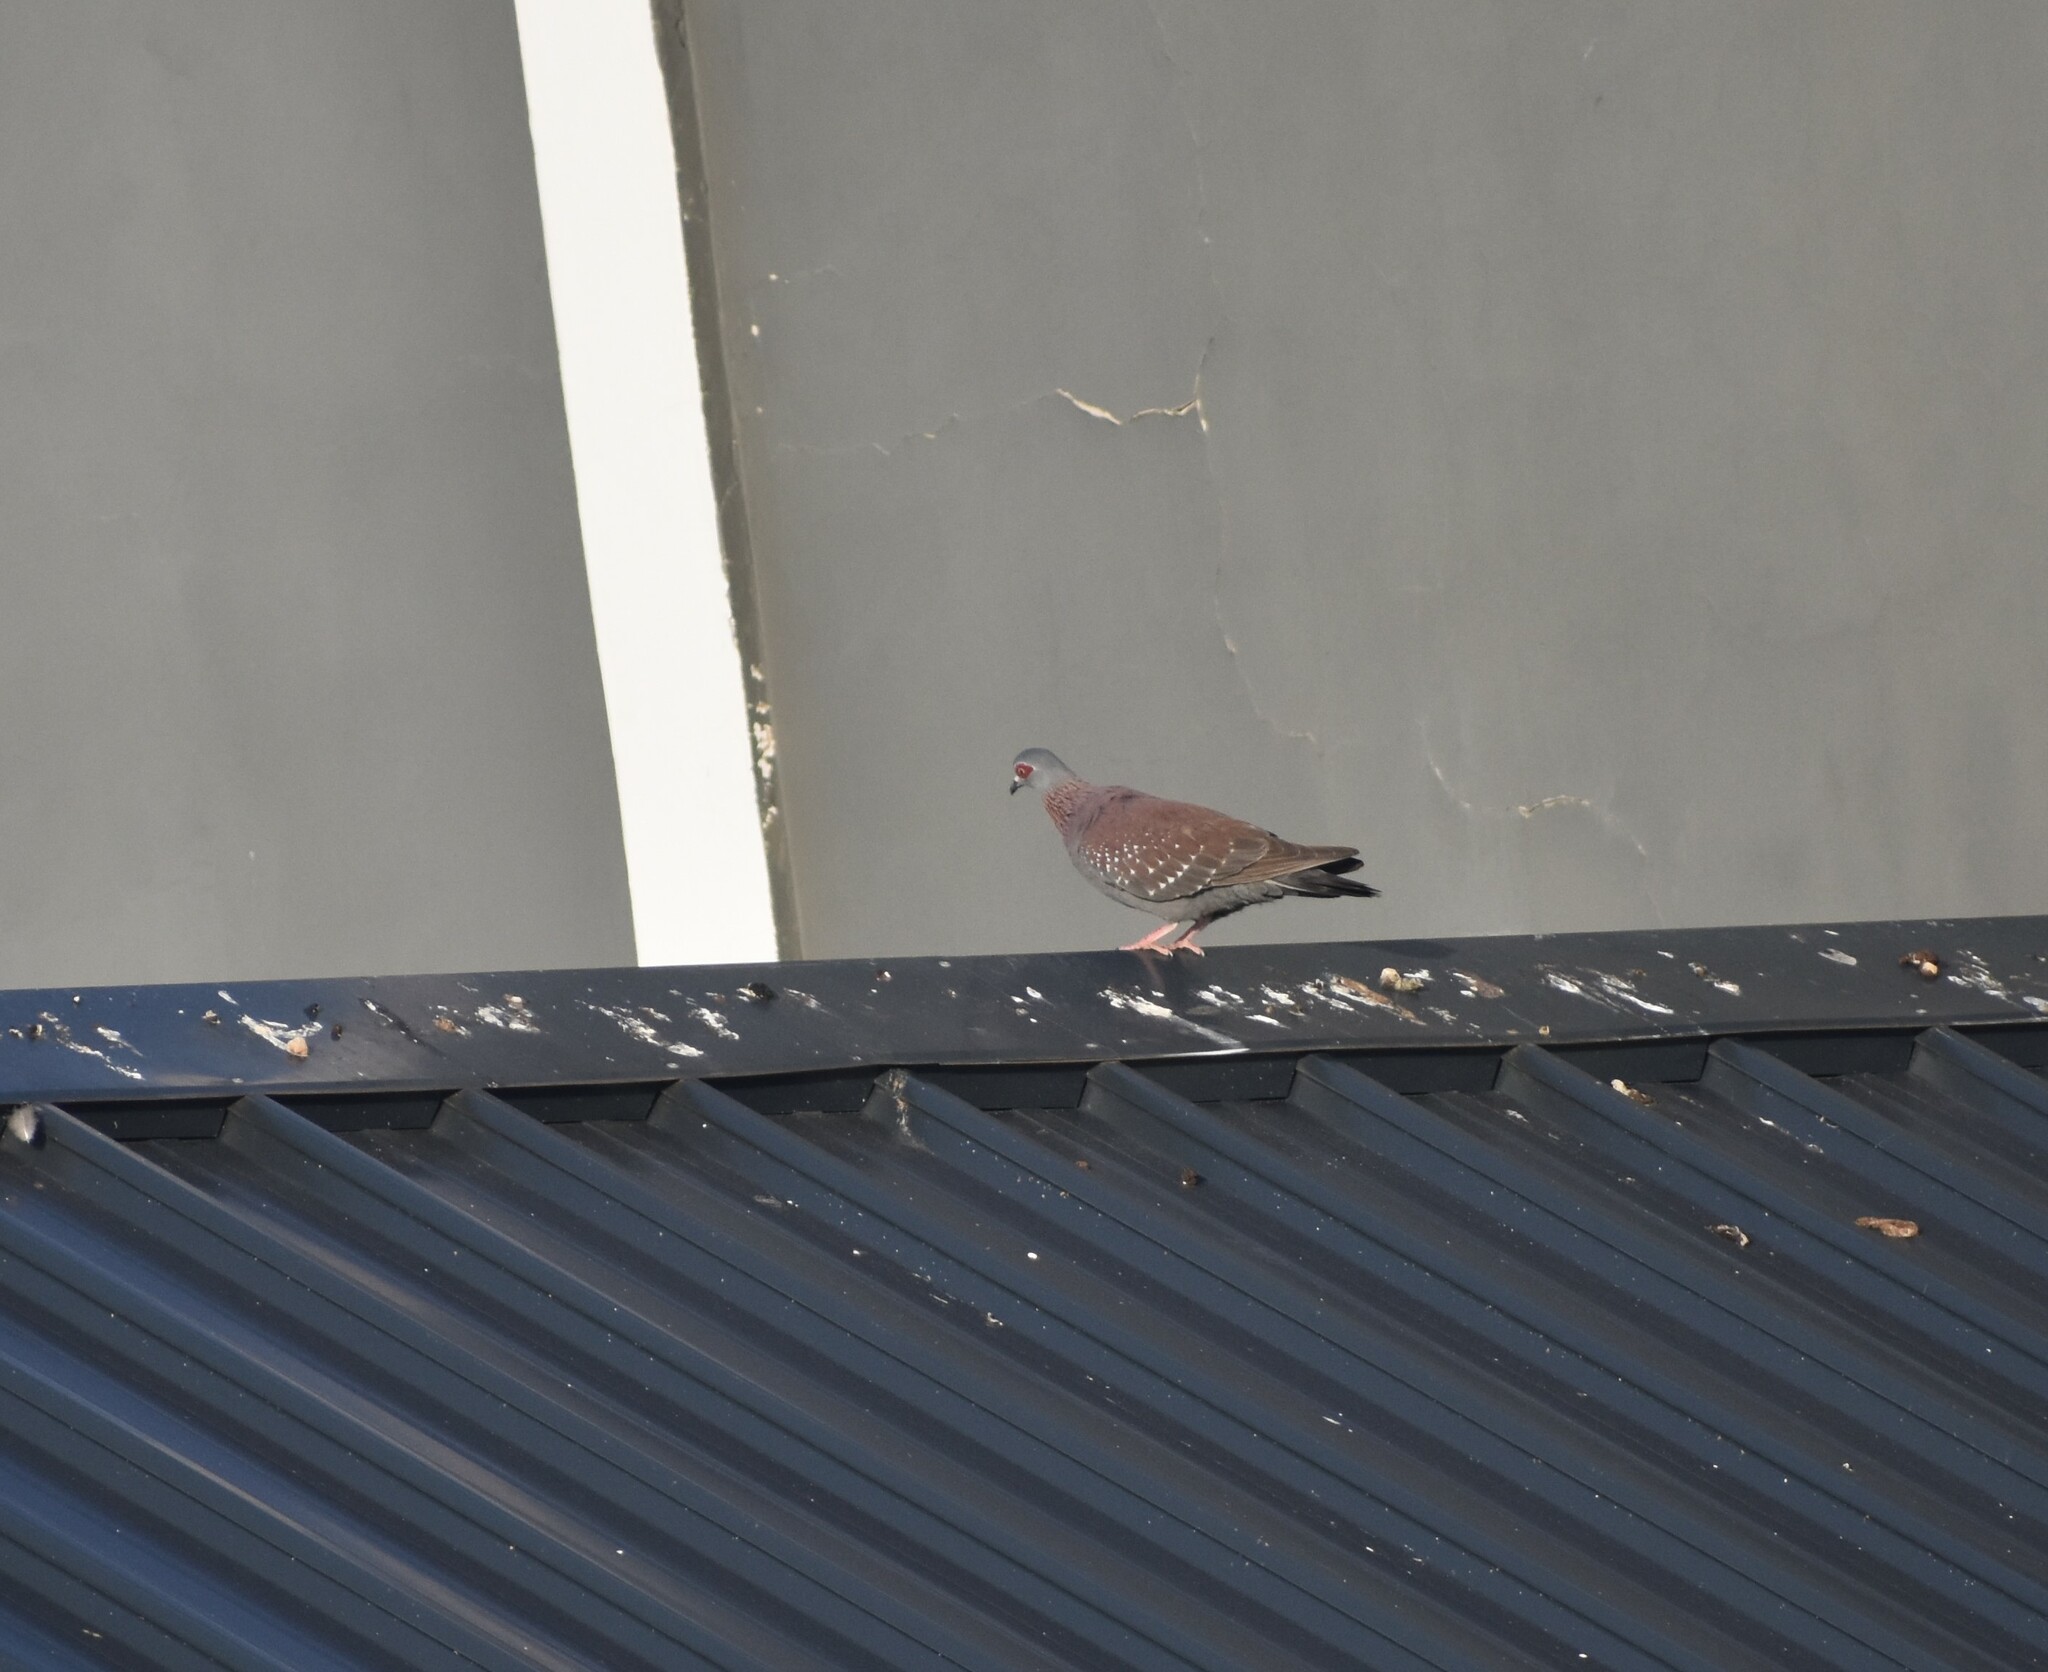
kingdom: Animalia
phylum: Chordata
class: Aves
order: Columbiformes
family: Columbidae
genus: Columba
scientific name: Columba guinea
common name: Speckled pigeon
